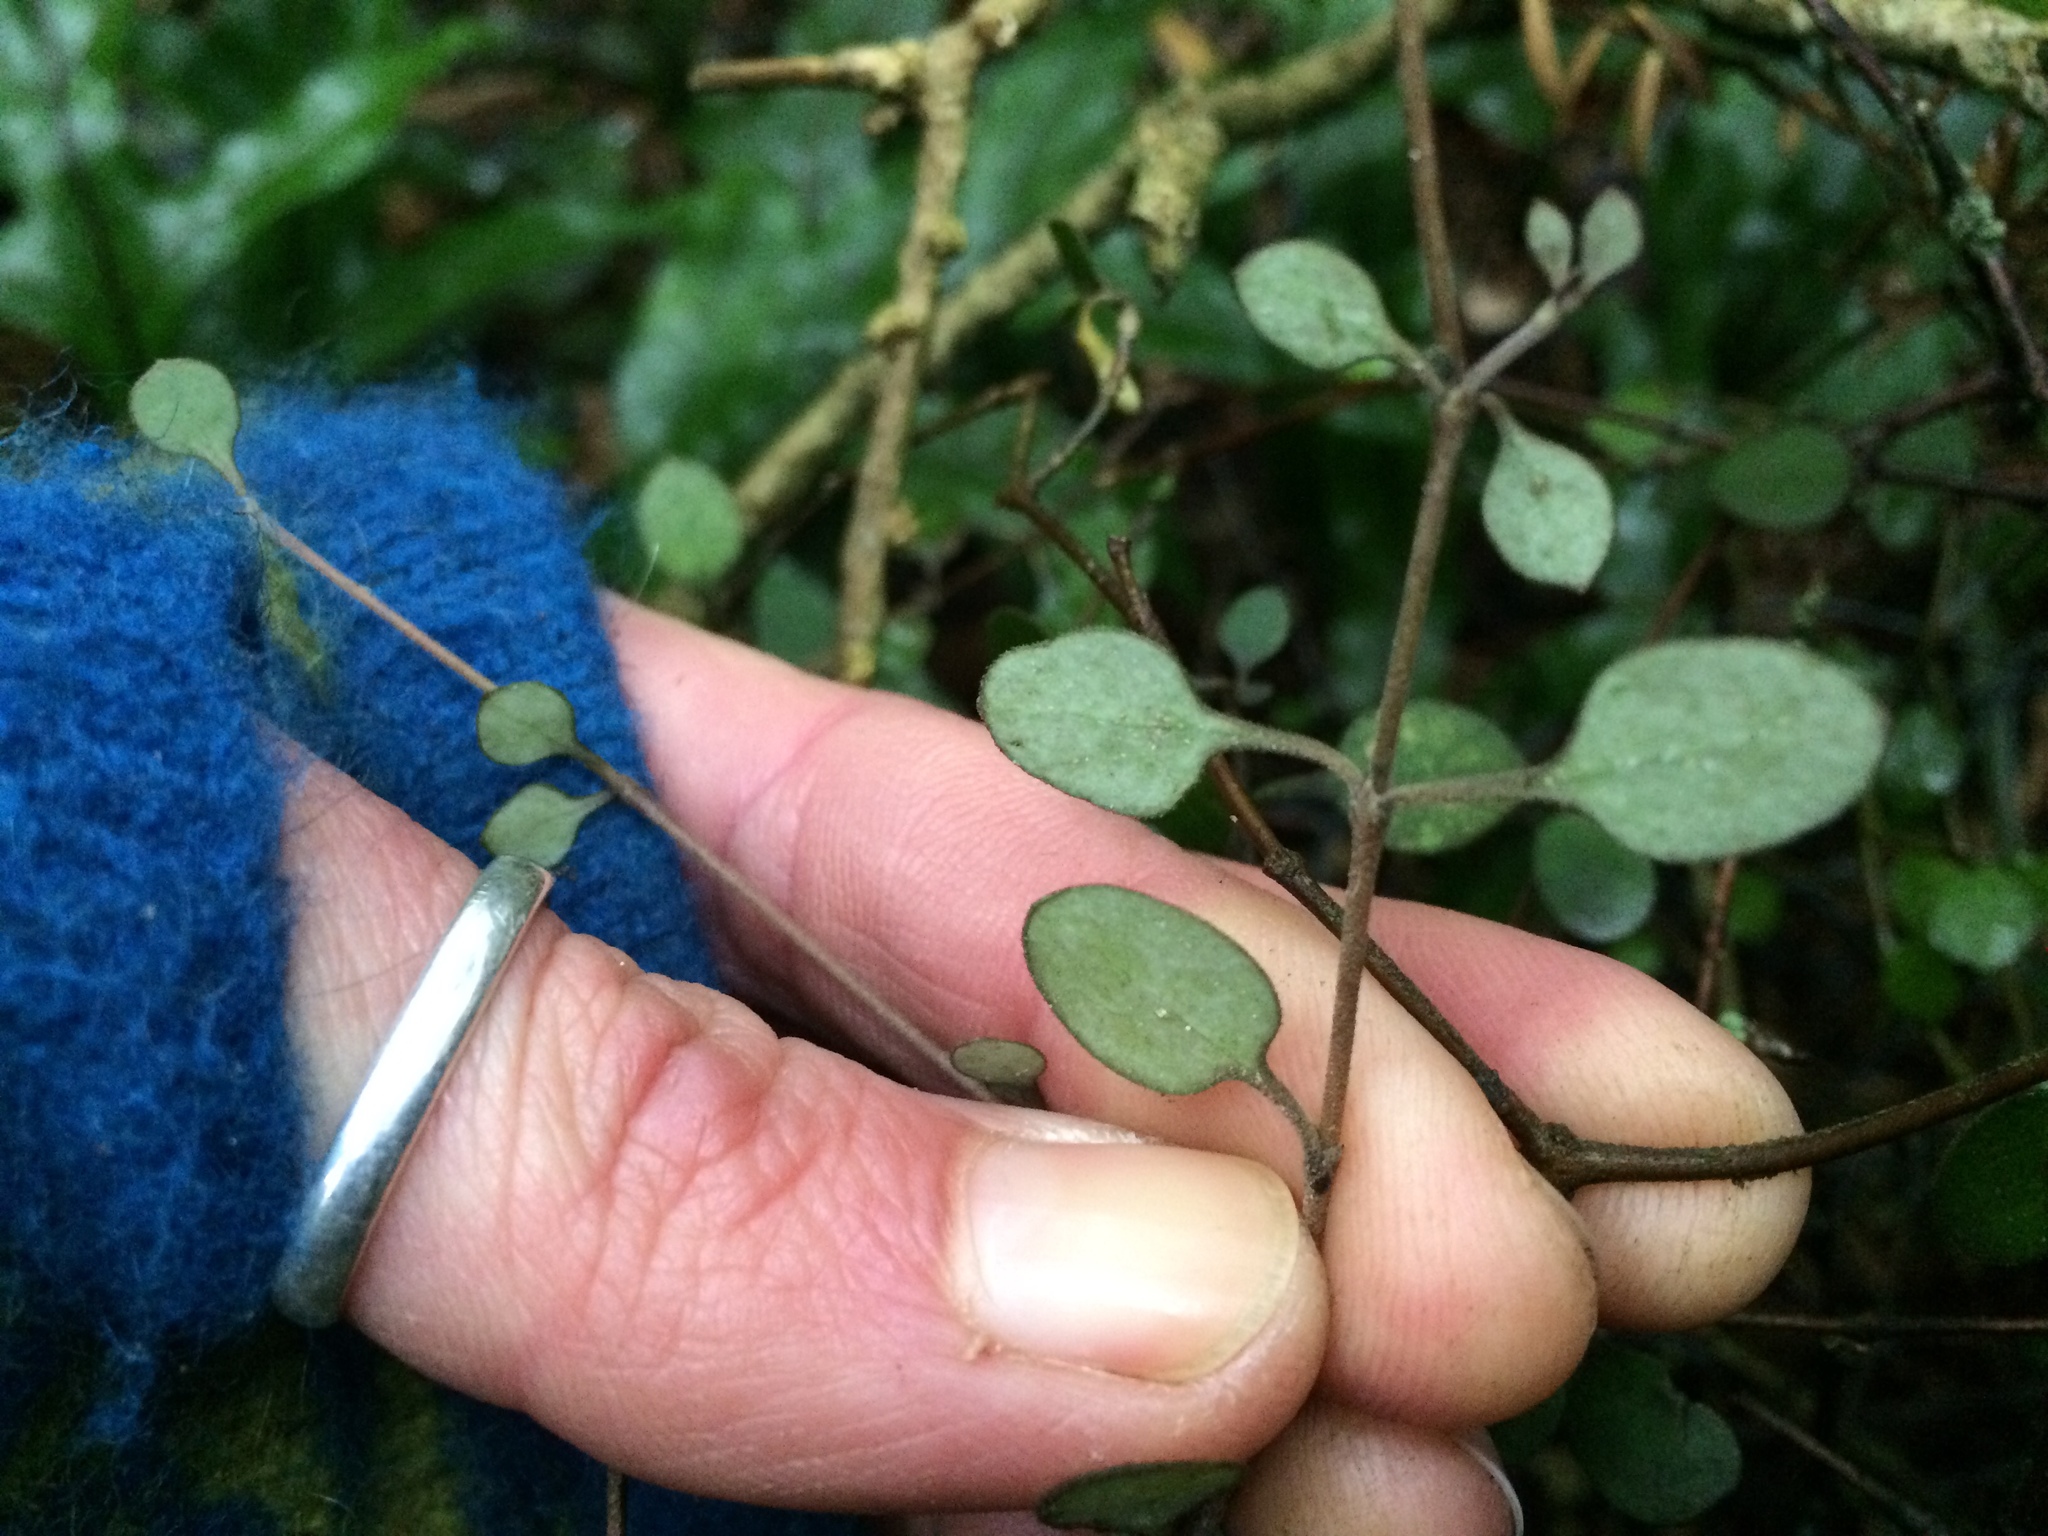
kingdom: Plantae
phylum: Tracheophyta
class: Magnoliopsida
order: Gentianales
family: Rubiaceae
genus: Coprosma
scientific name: Coprosma crassifolia
